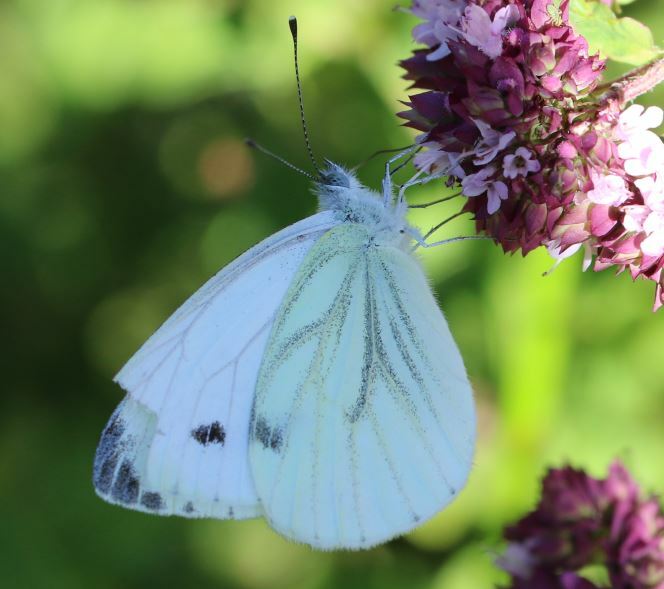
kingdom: Animalia
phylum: Arthropoda
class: Insecta
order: Lepidoptera
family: Pieridae
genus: Pieris
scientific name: Pieris napi
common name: Green-veined white
